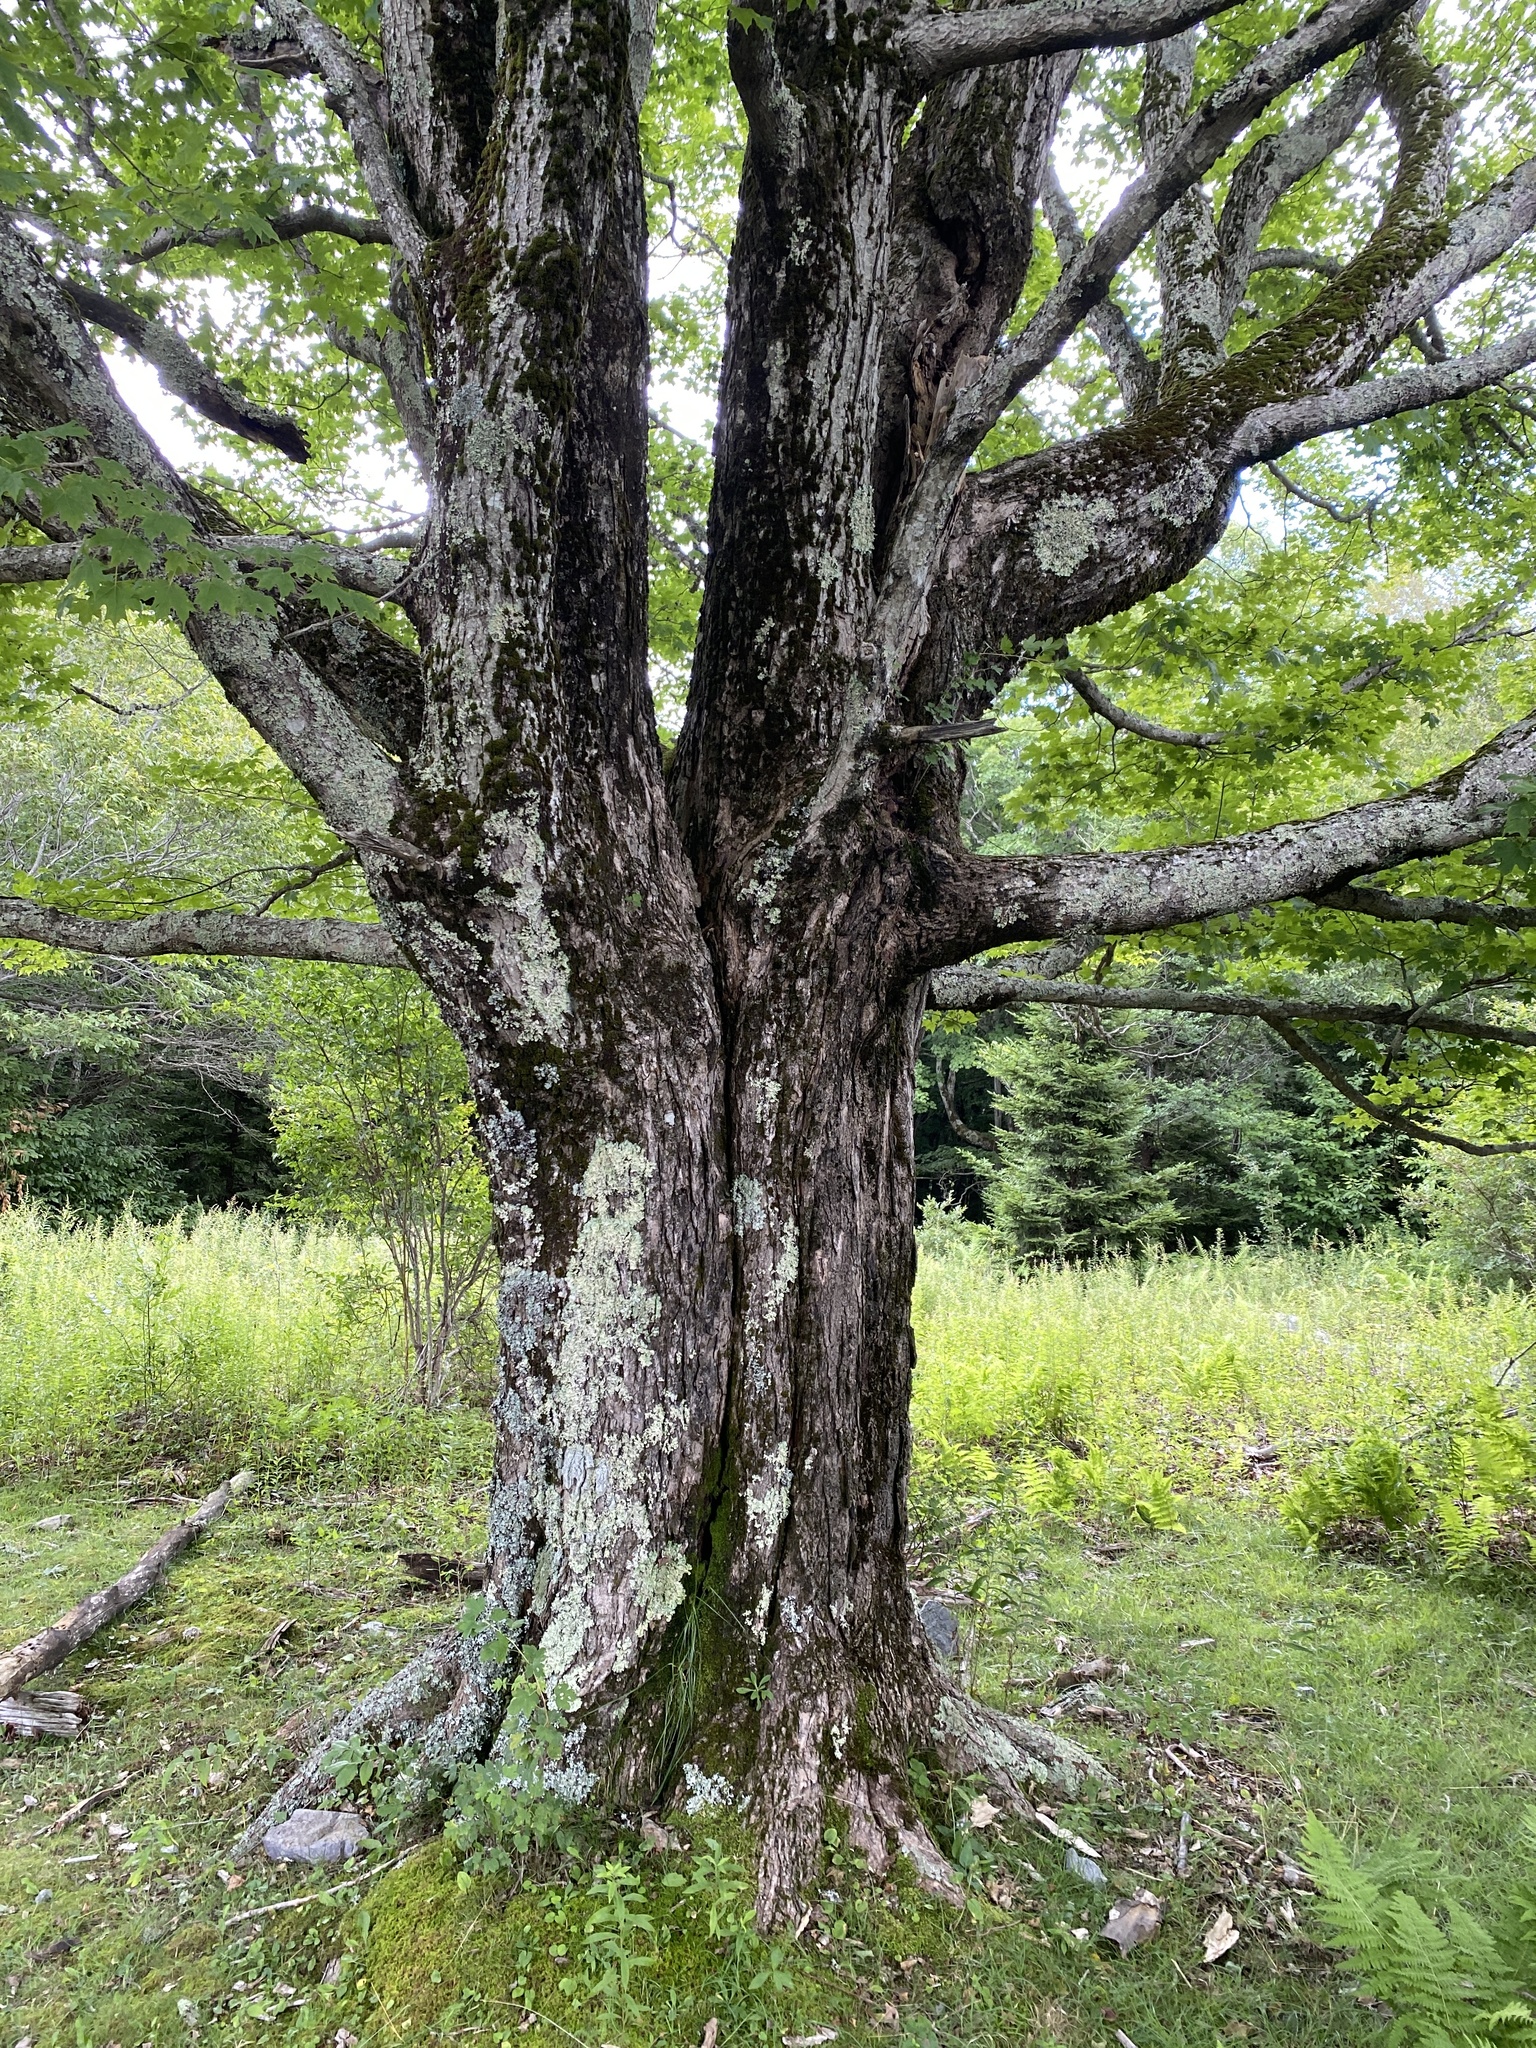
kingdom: Plantae
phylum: Tracheophyta
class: Magnoliopsida
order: Sapindales
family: Sapindaceae
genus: Acer
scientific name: Acer saccharum
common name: Sugar maple
